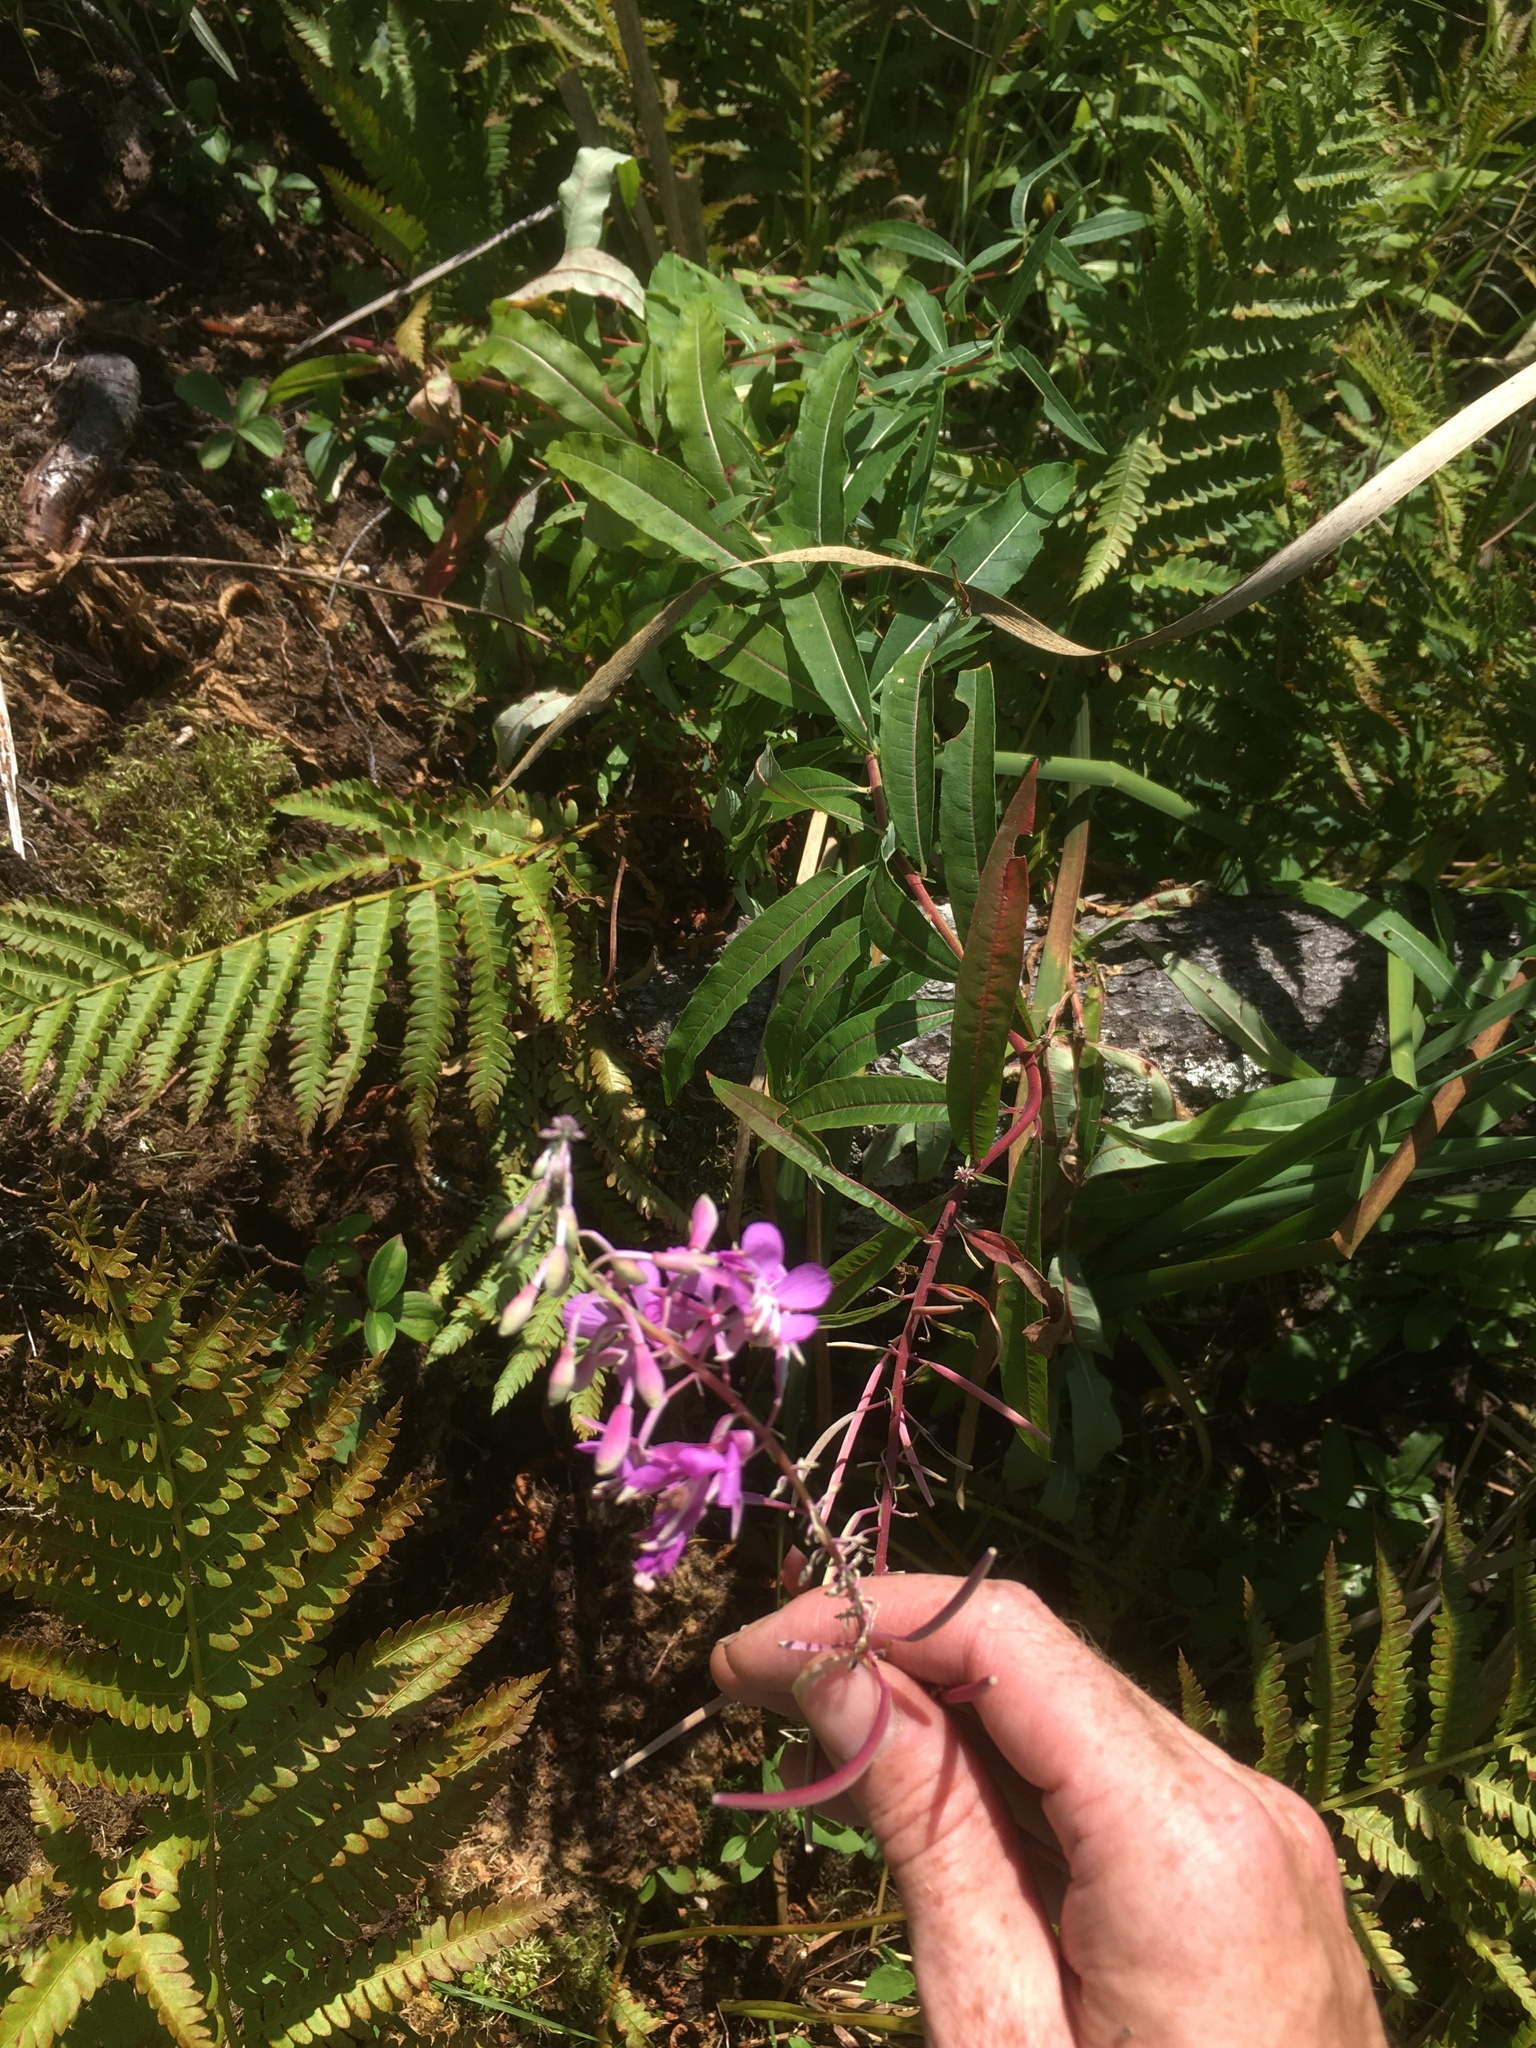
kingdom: Plantae
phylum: Tracheophyta
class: Magnoliopsida
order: Myrtales
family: Onagraceae
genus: Chamaenerion
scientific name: Chamaenerion angustifolium
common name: Fireweed
